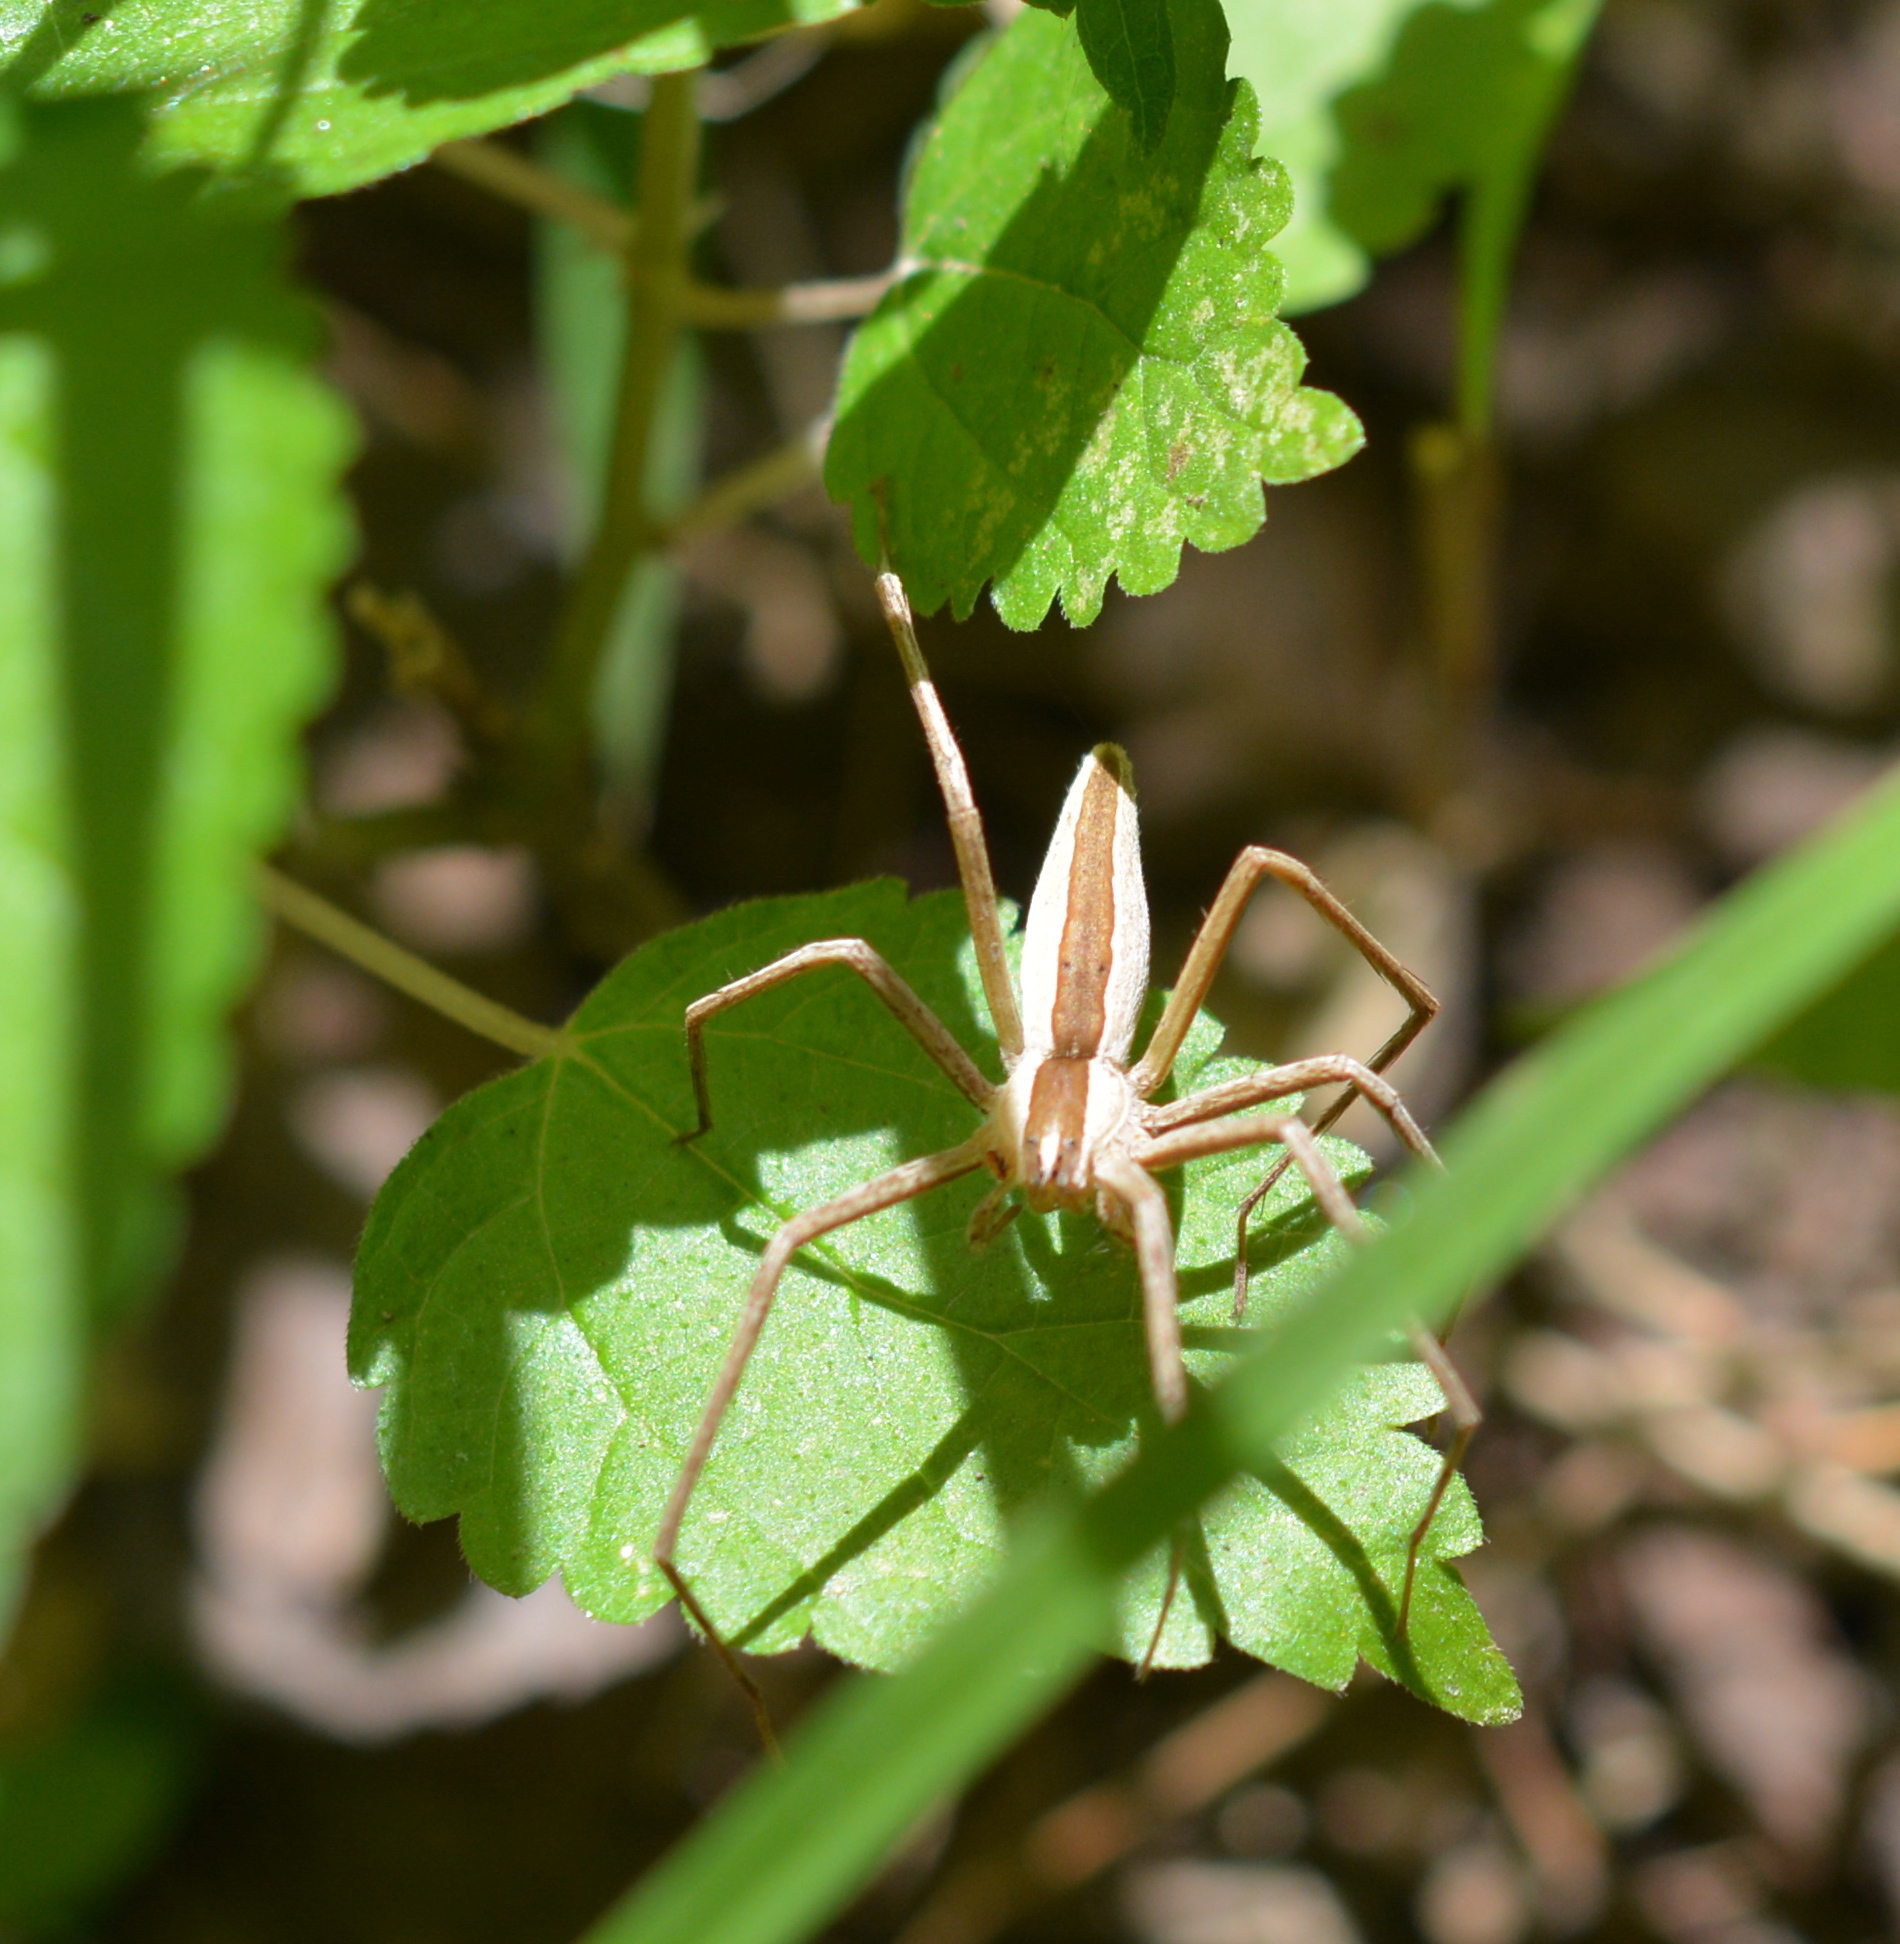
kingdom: Animalia
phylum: Arthropoda
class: Arachnida
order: Araneae
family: Pisauridae
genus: Pisaurina
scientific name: Pisaurina dubia
